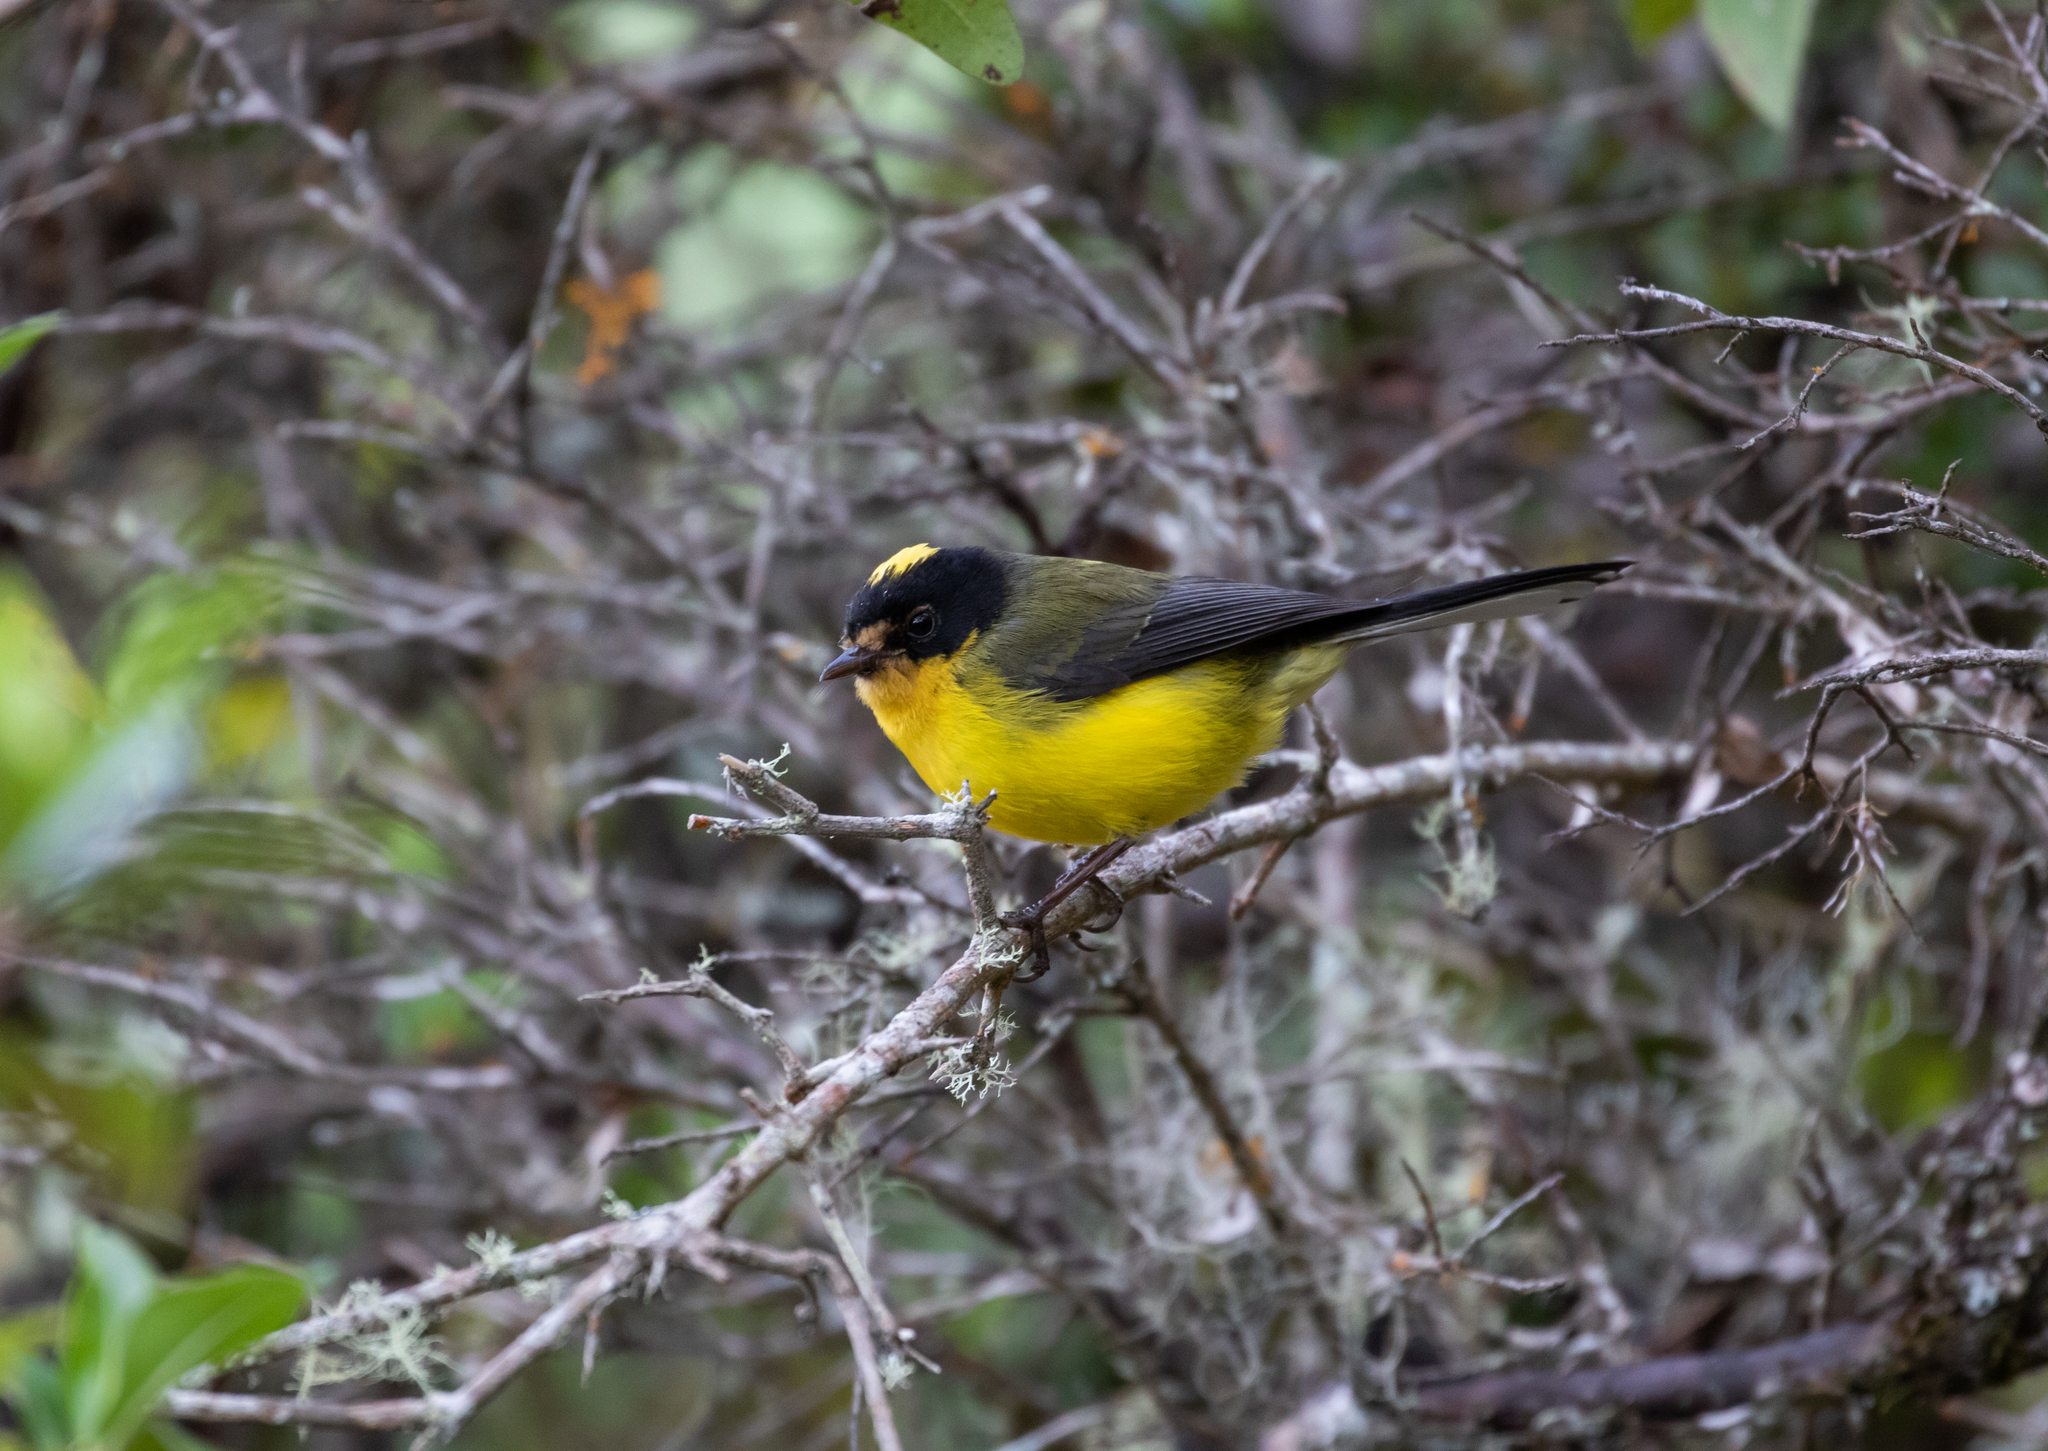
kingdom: Animalia
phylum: Chordata
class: Aves
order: Passeriformes
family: Parulidae
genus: Myioborus
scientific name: Myioborus flavivertex
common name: Yellow-crowned whitestart
